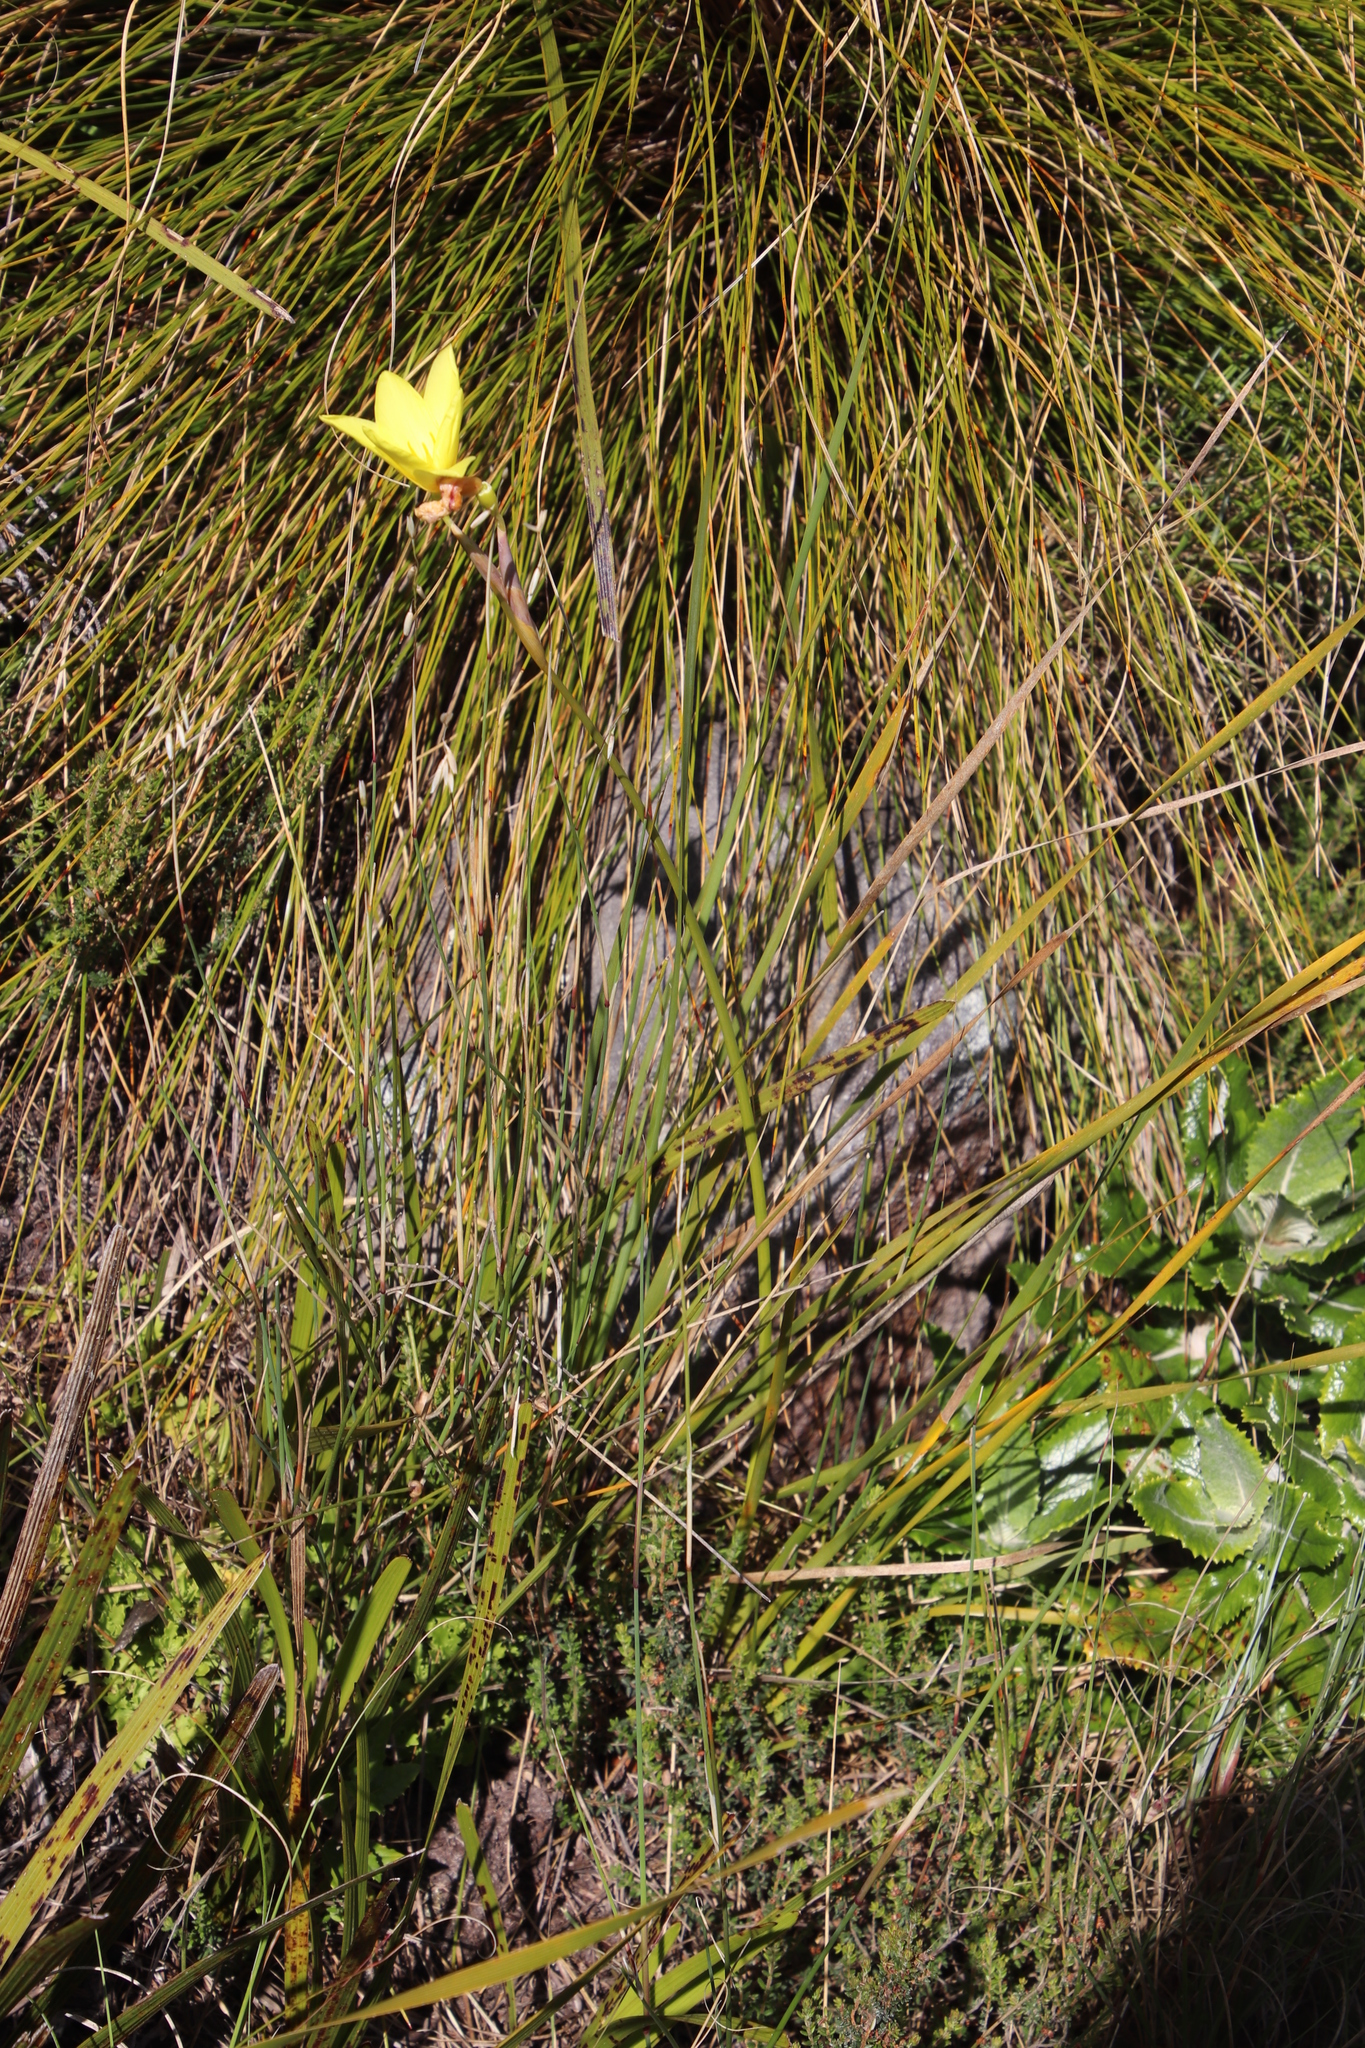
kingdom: Plantae
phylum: Tracheophyta
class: Liliopsida
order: Asparagales
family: Iridaceae
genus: Bobartia
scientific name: Bobartia gladiata
